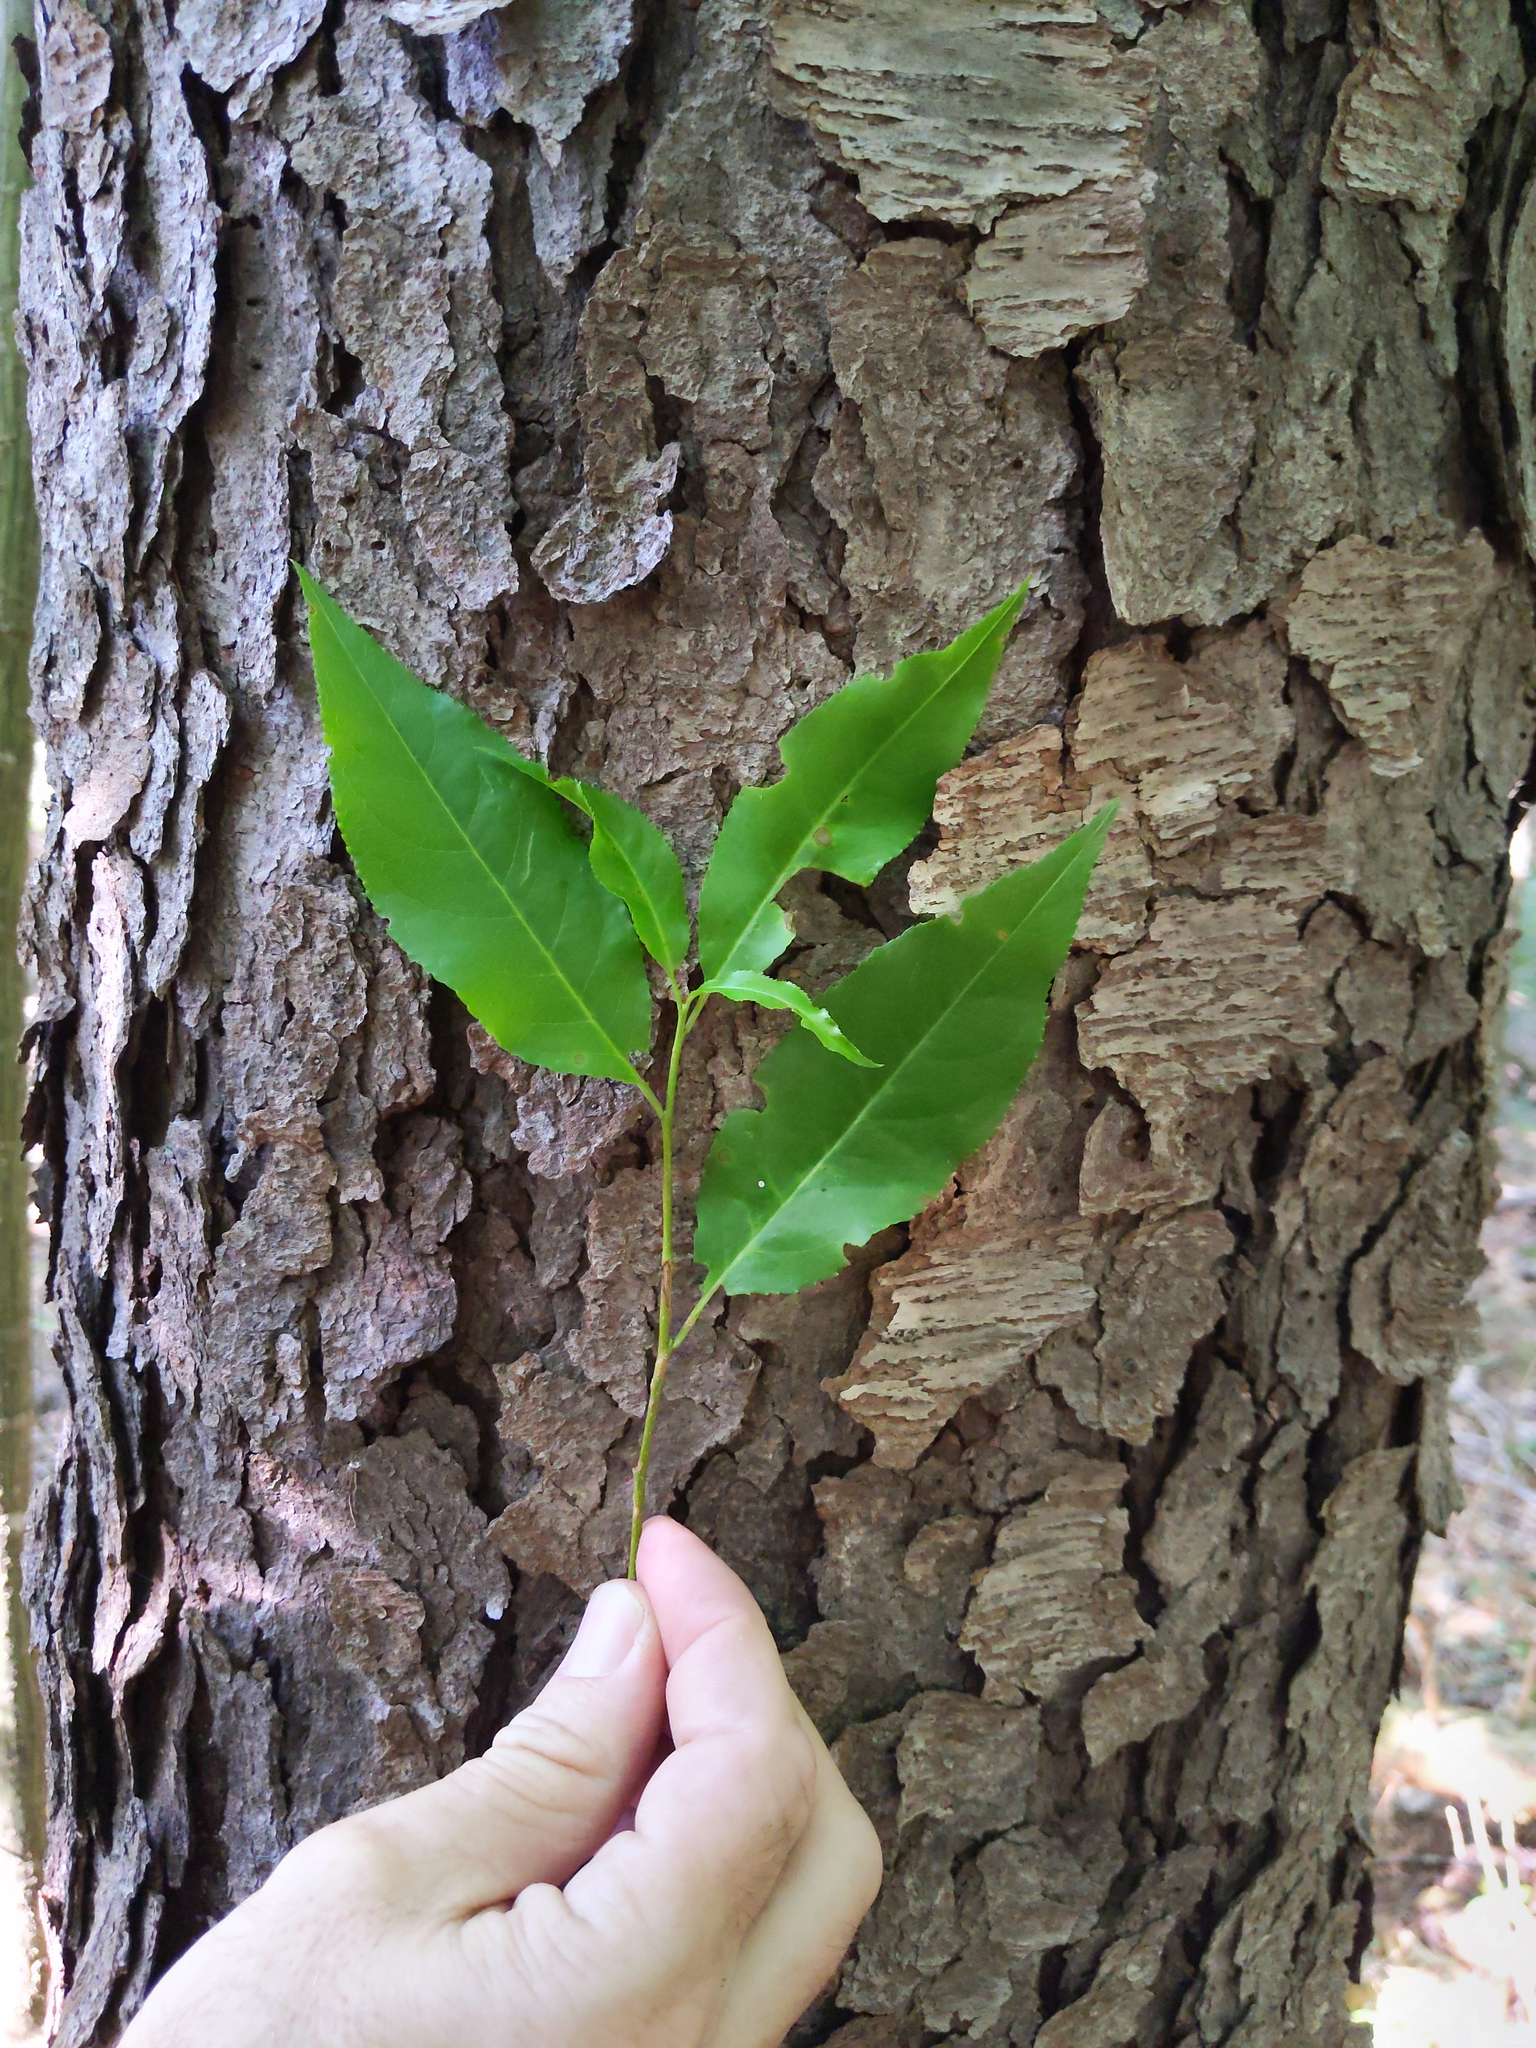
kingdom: Plantae
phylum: Tracheophyta
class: Magnoliopsida
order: Rosales
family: Rosaceae
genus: Prunus
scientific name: Prunus serotina
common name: Black cherry
